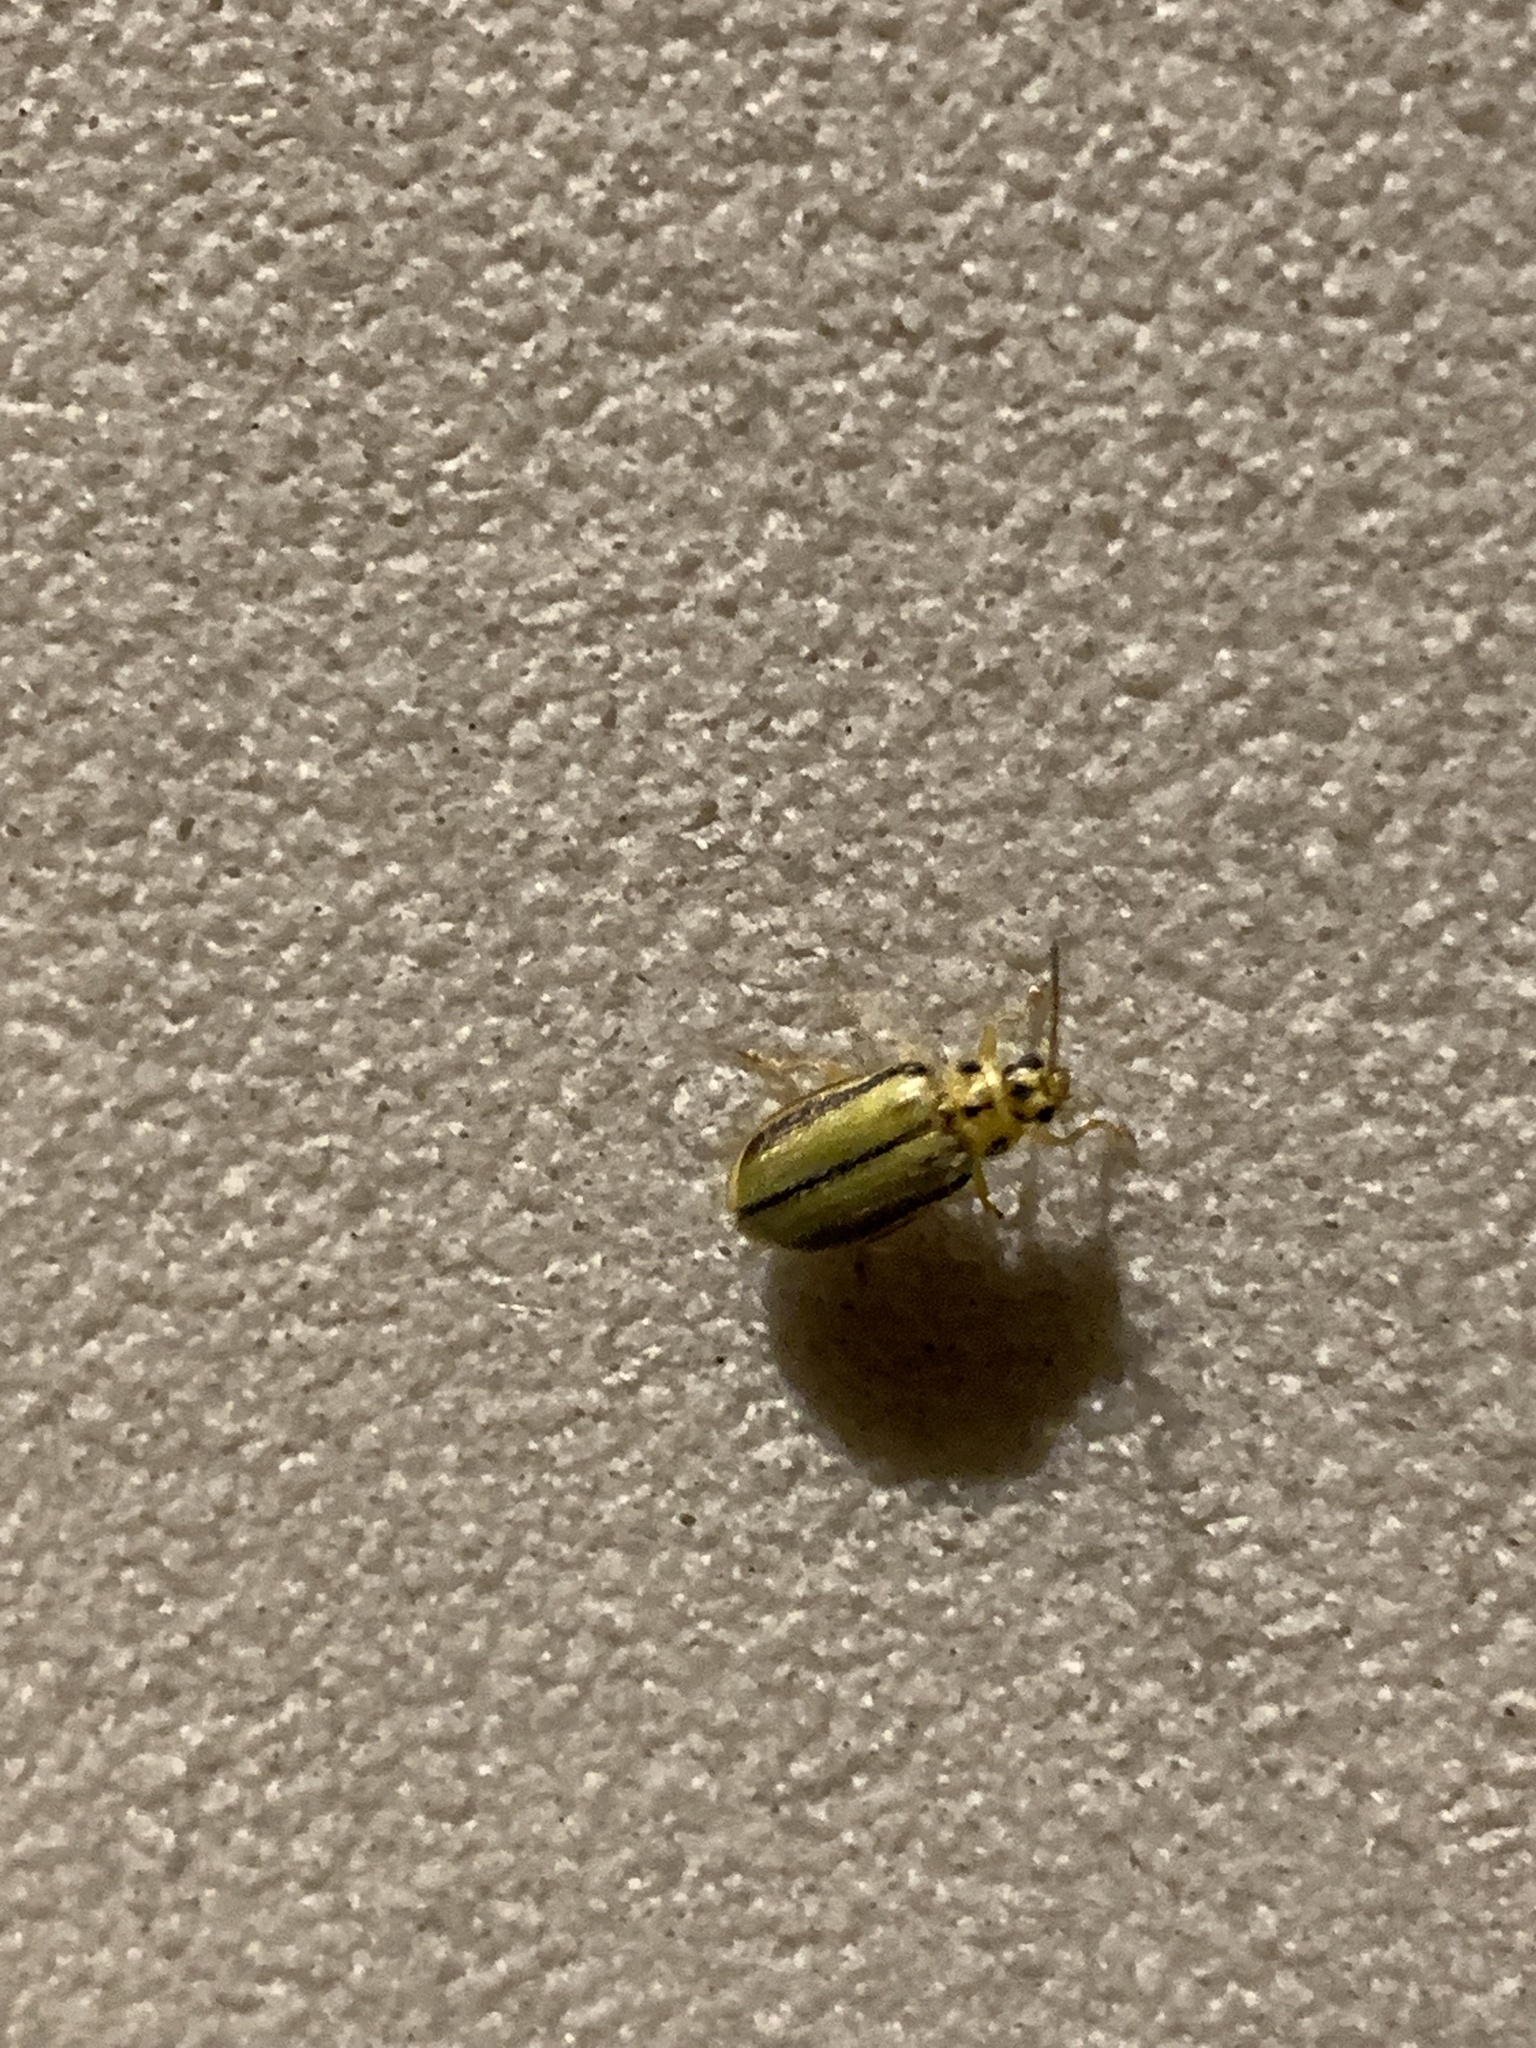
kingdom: Animalia
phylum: Arthropoda
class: Insecta
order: Coleoptera
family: Chrysomelidae
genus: Xanthogaleruca
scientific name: Xanthogaleruca luteola
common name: Elm leaf beetle
